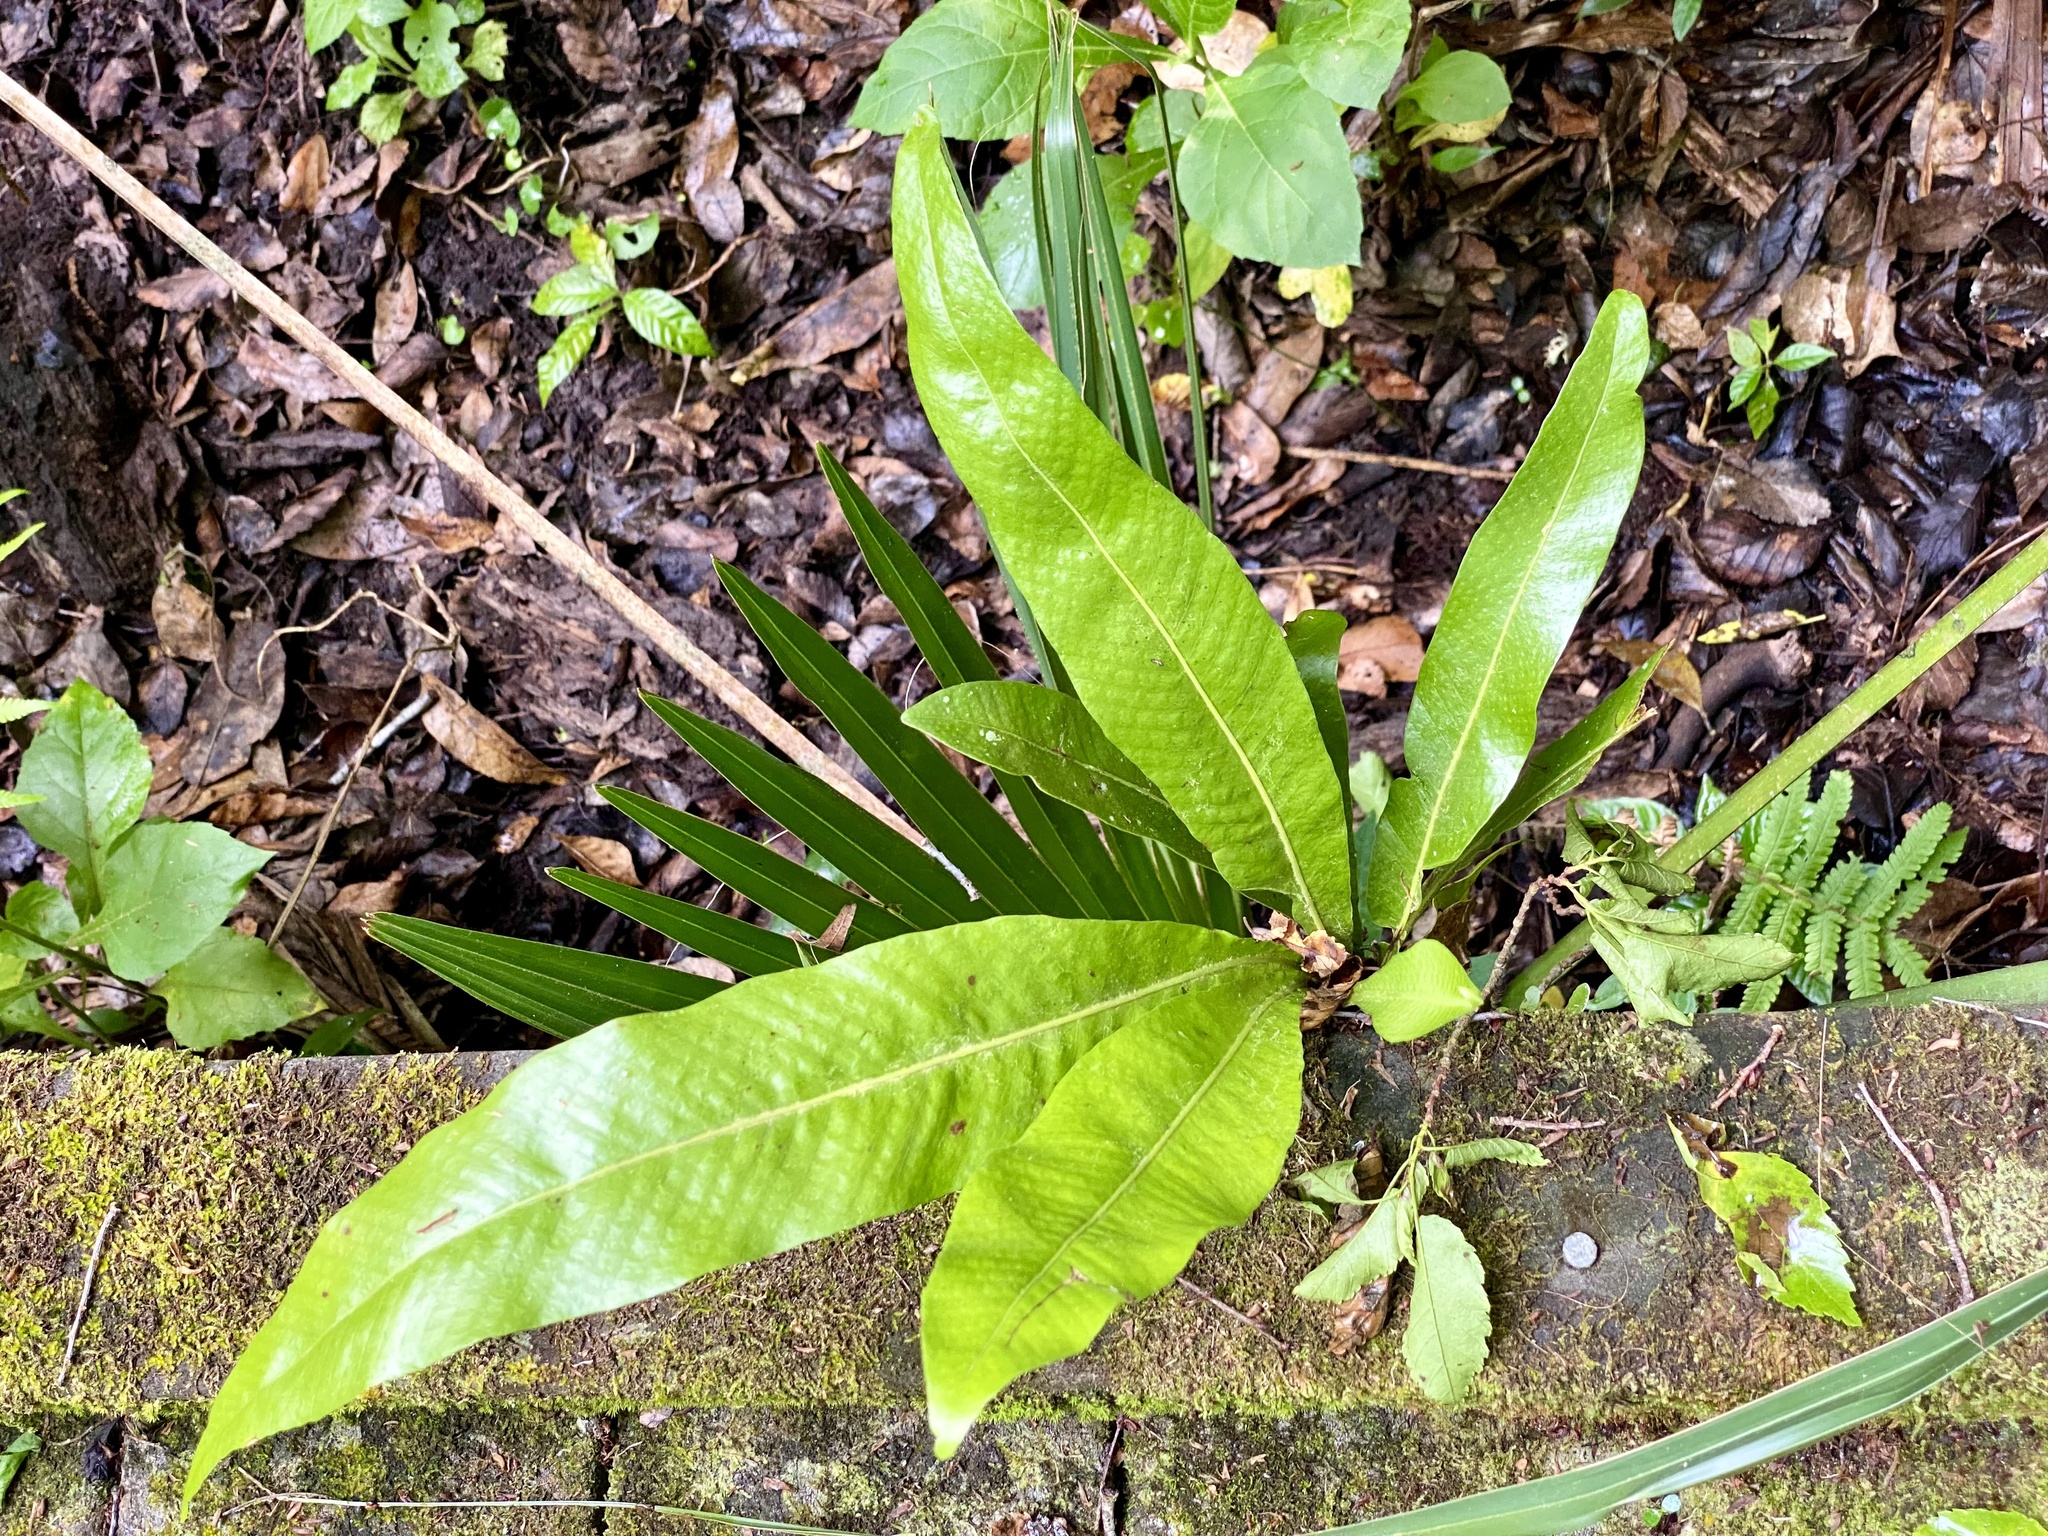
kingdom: Plantae
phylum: Tracheophyta
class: Polypodiopsida
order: Polypodiales
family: Polypodiaceae
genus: Campyloneurum
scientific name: Campyloneurum phyllitidis
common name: Cow-tongue fern
